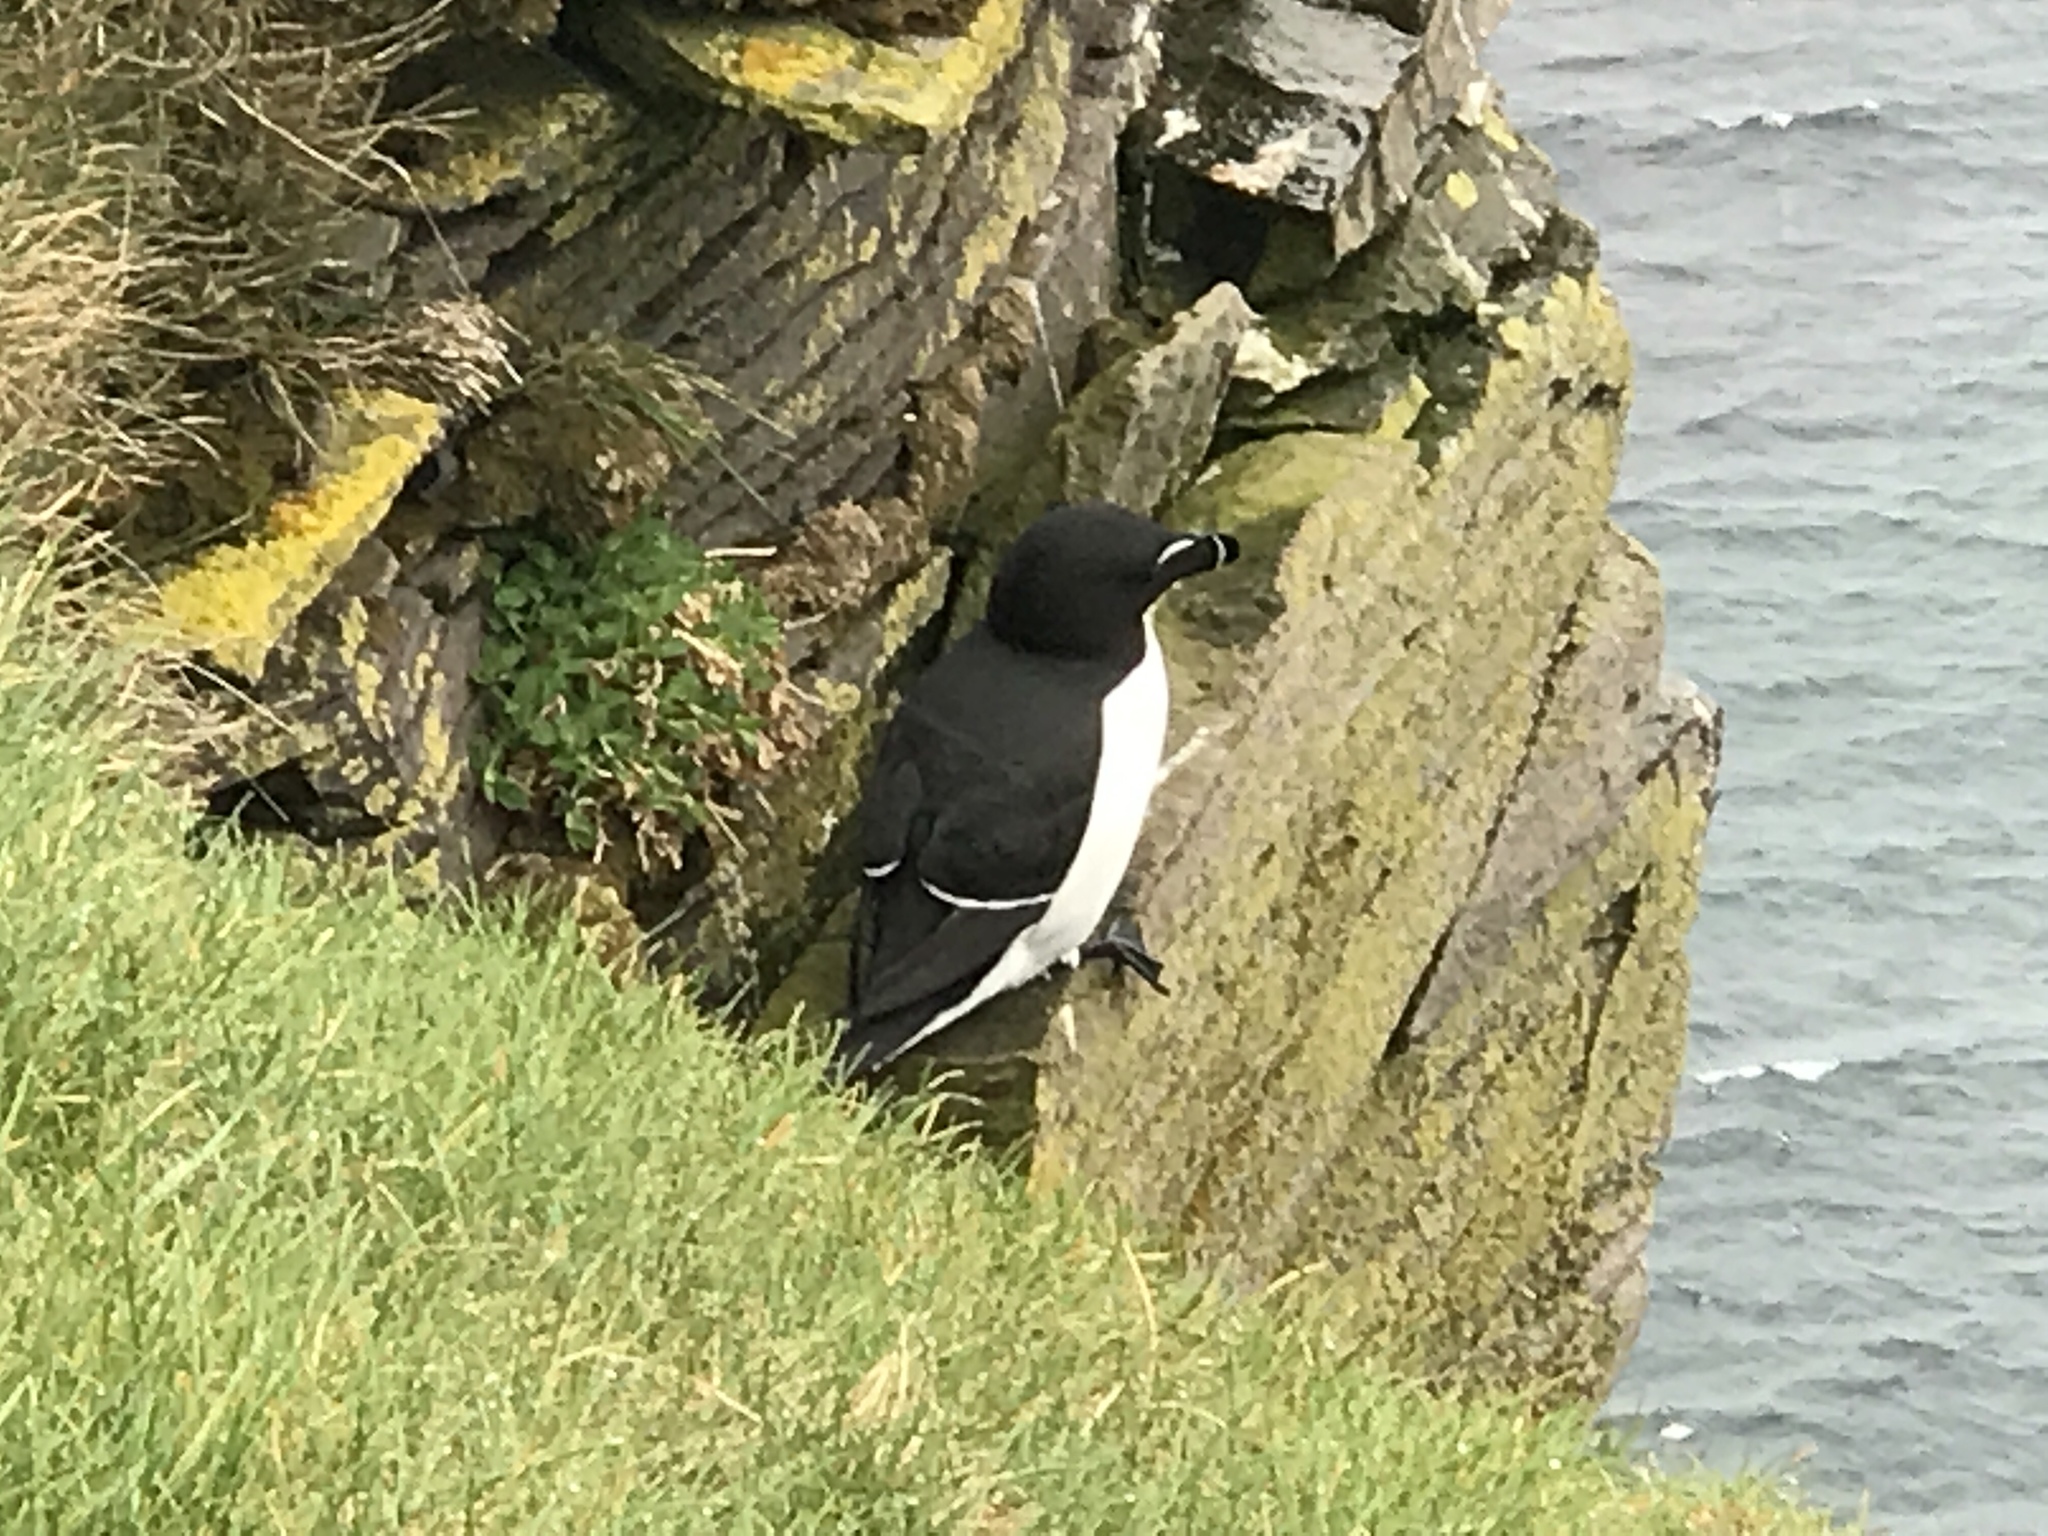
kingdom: Animalia
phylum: Chordata
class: Aves
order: Charadriiformes
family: Alcidae
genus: Alca
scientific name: Alca torda
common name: Razorbill
